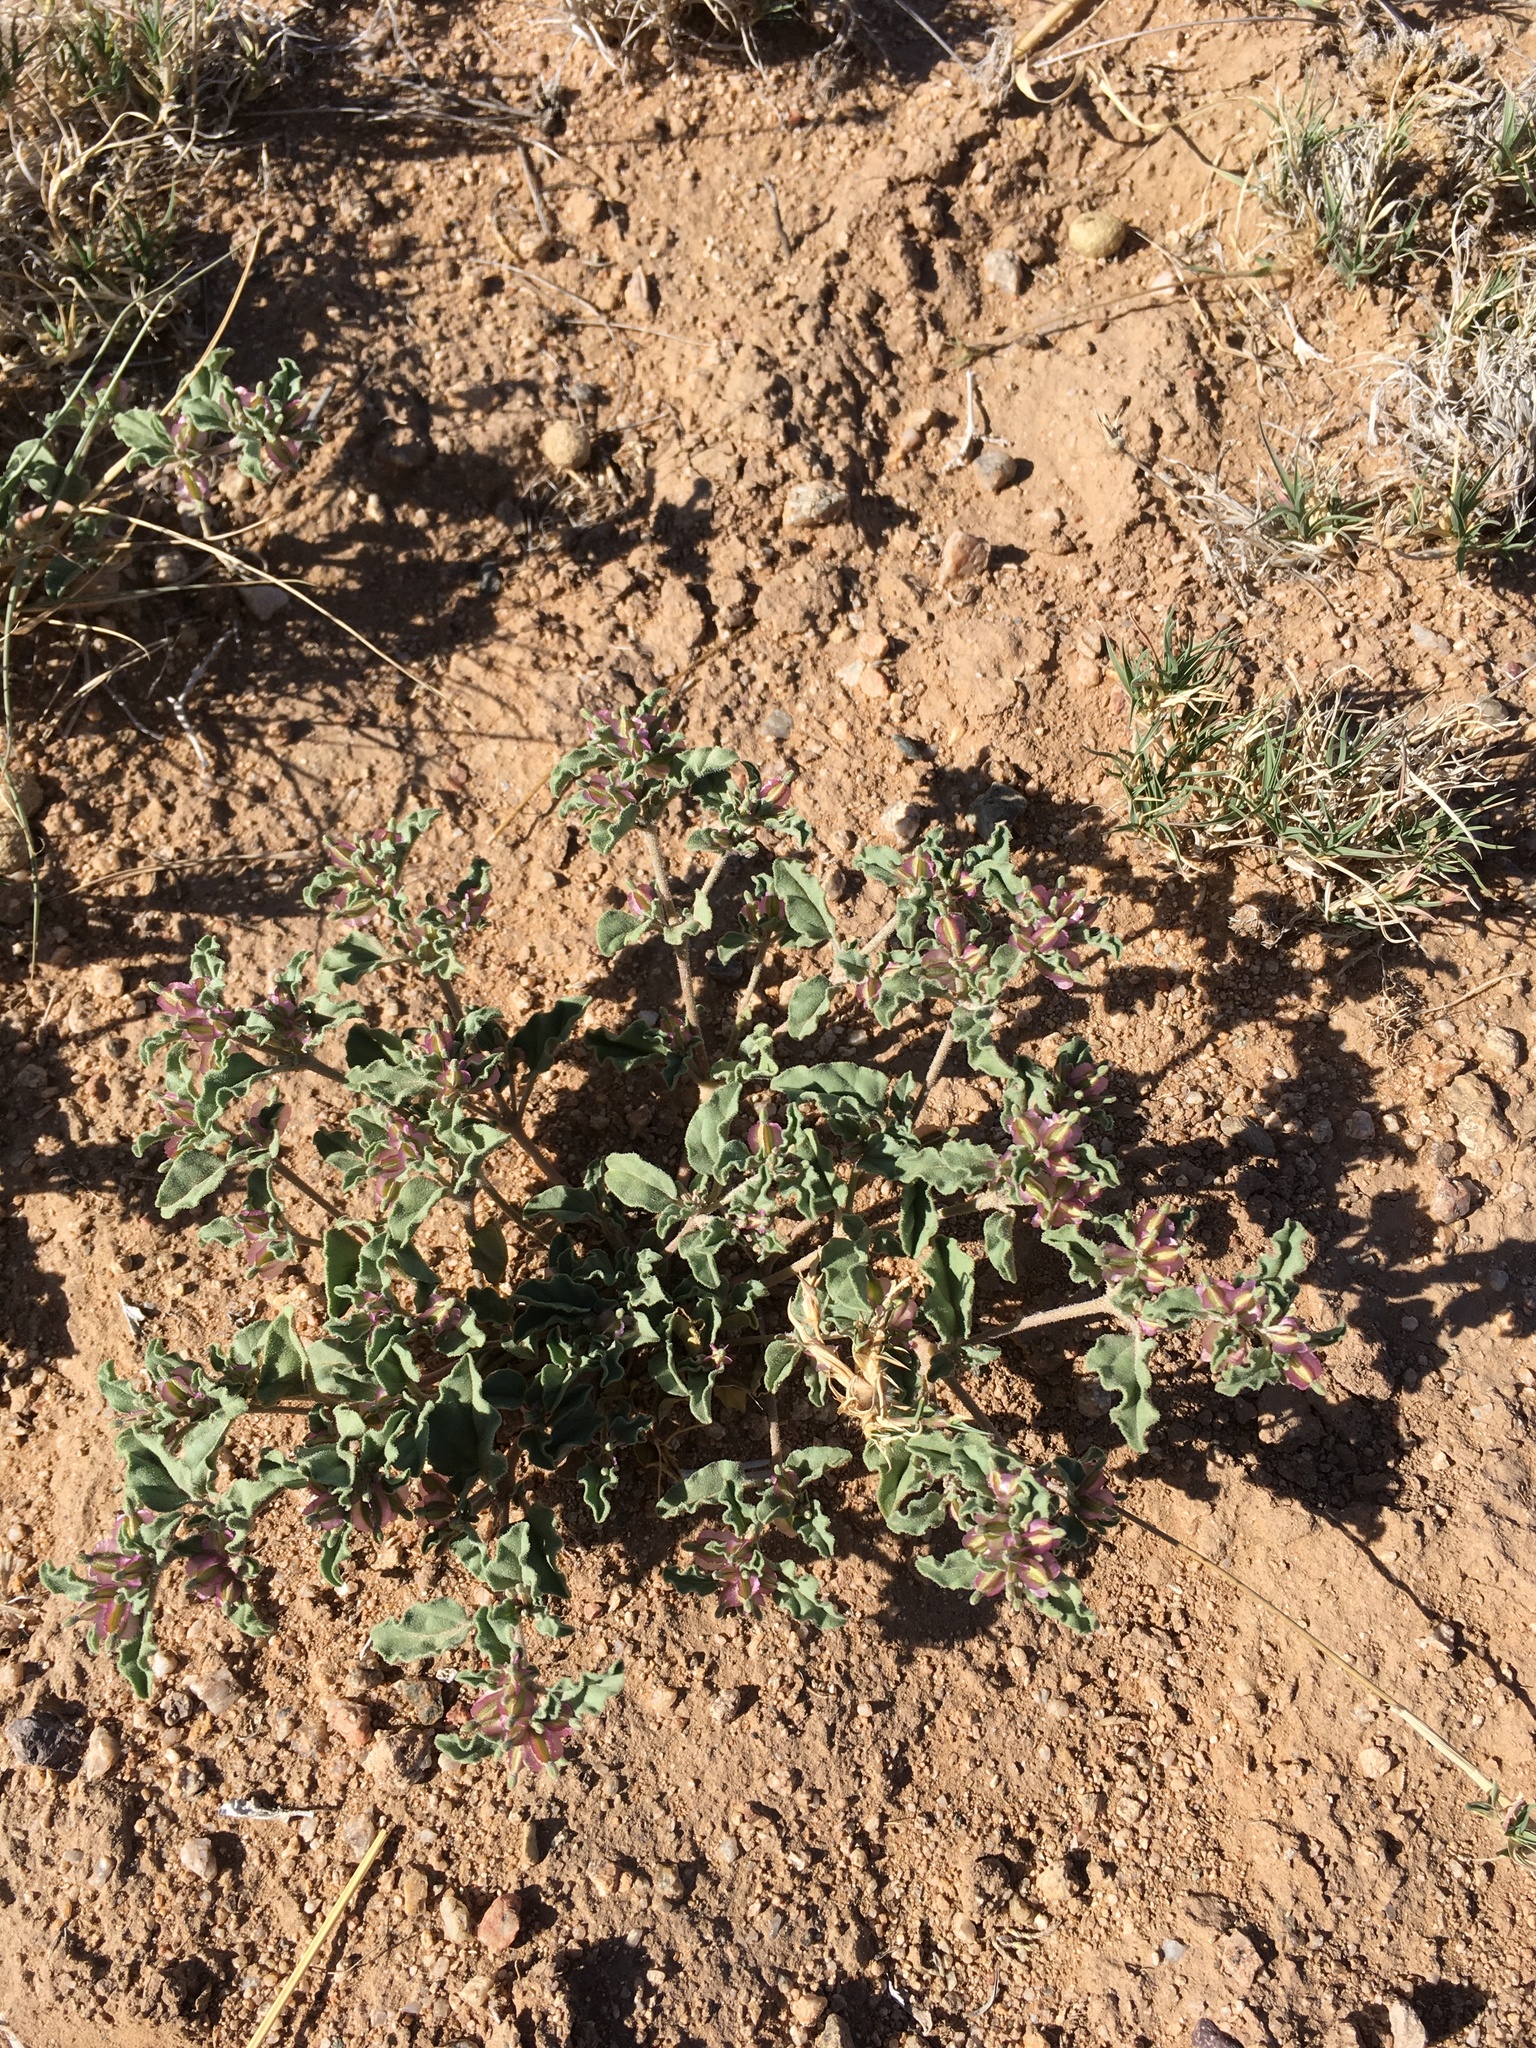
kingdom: Plantae
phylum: Tracheophyta
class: Magnoliopsida
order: Caryophyllales
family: Nyctaginaceae
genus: Acleisanthes
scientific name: Acleisanthes diffusa
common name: Spreading moonpod
